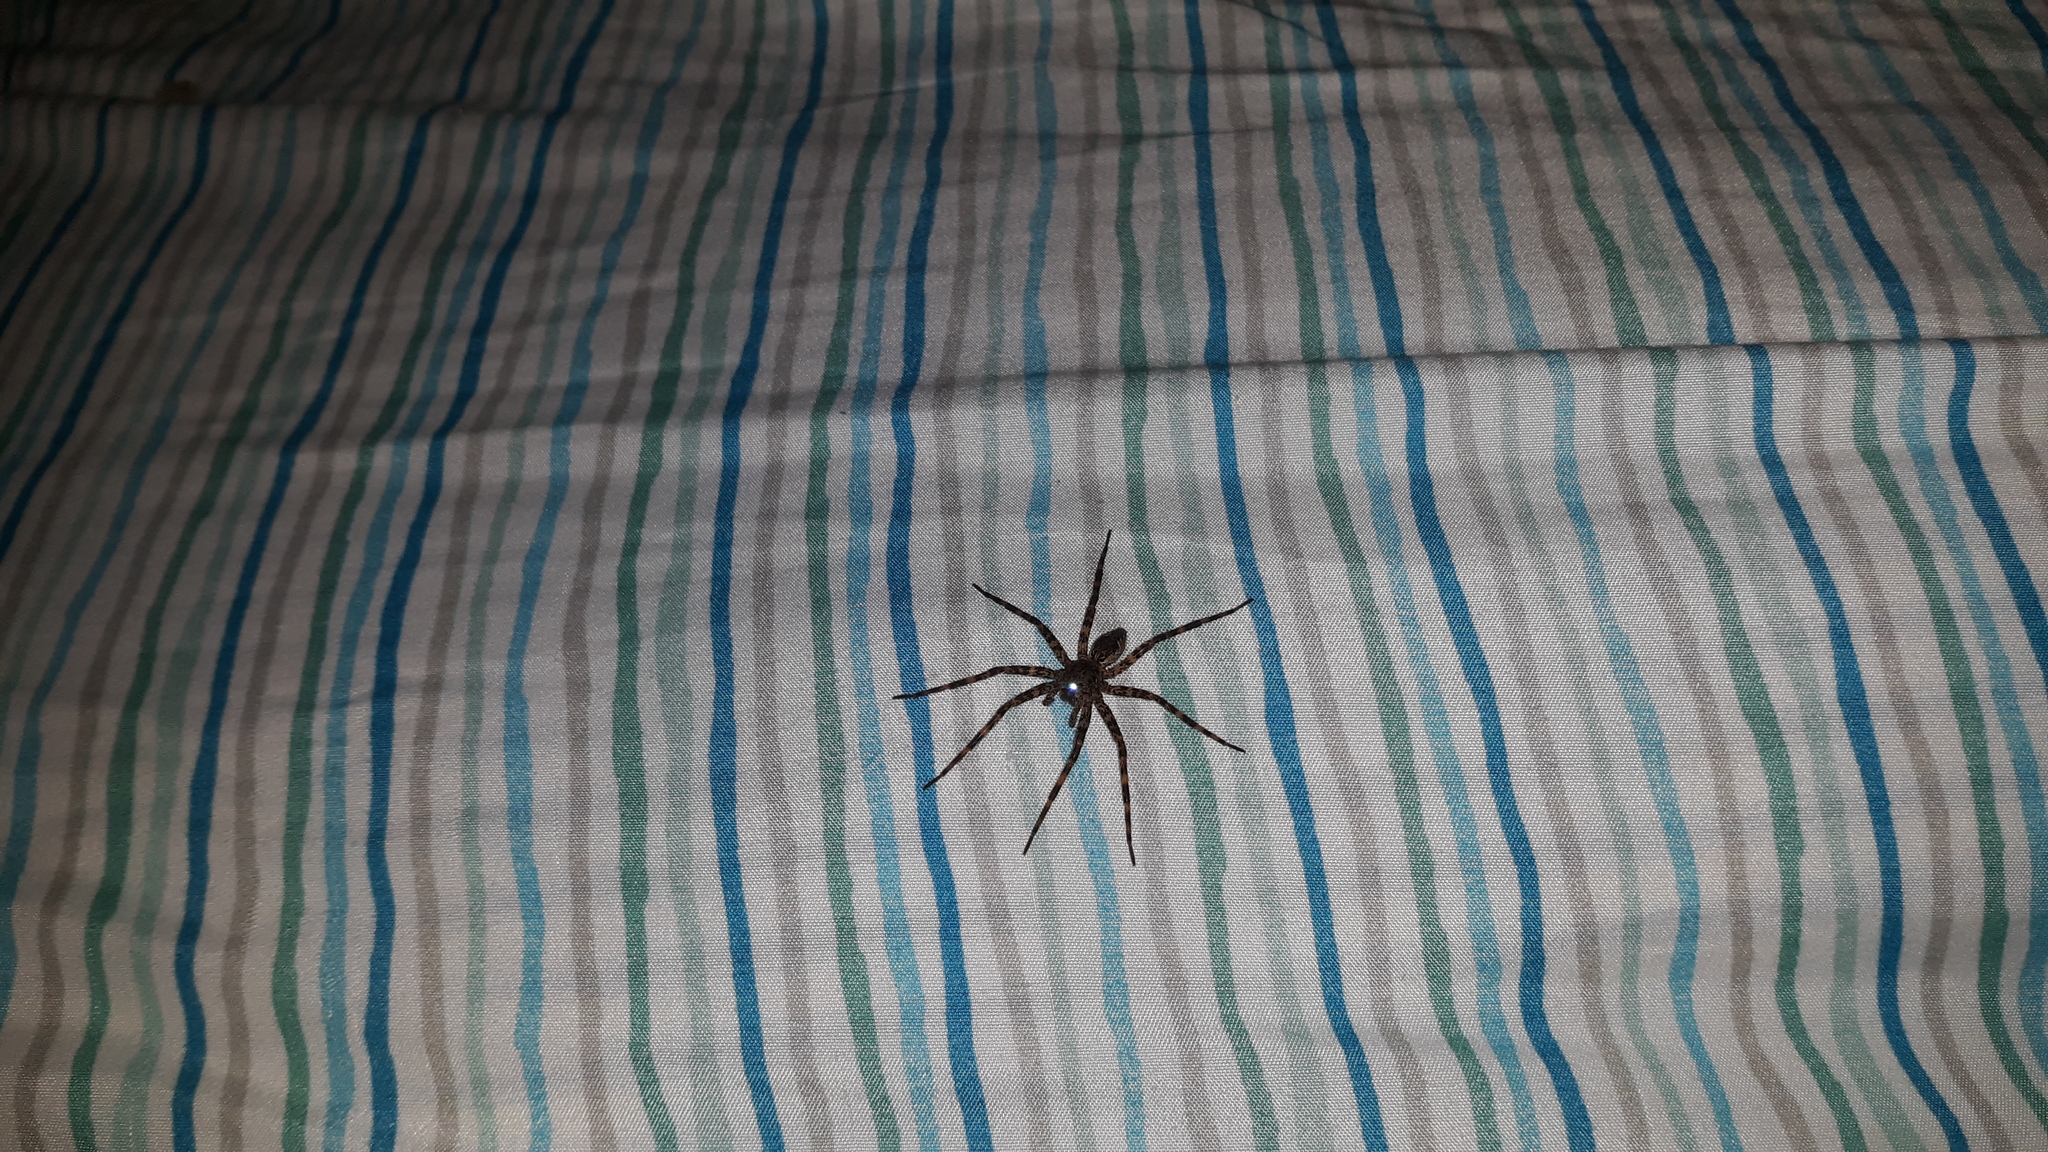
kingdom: Animalia
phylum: Arthropoda
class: Arachnida
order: Araneae
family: Pisauridae
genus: Dolomedes
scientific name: Dolomedes tenebrosus
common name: Dark fishing spider
